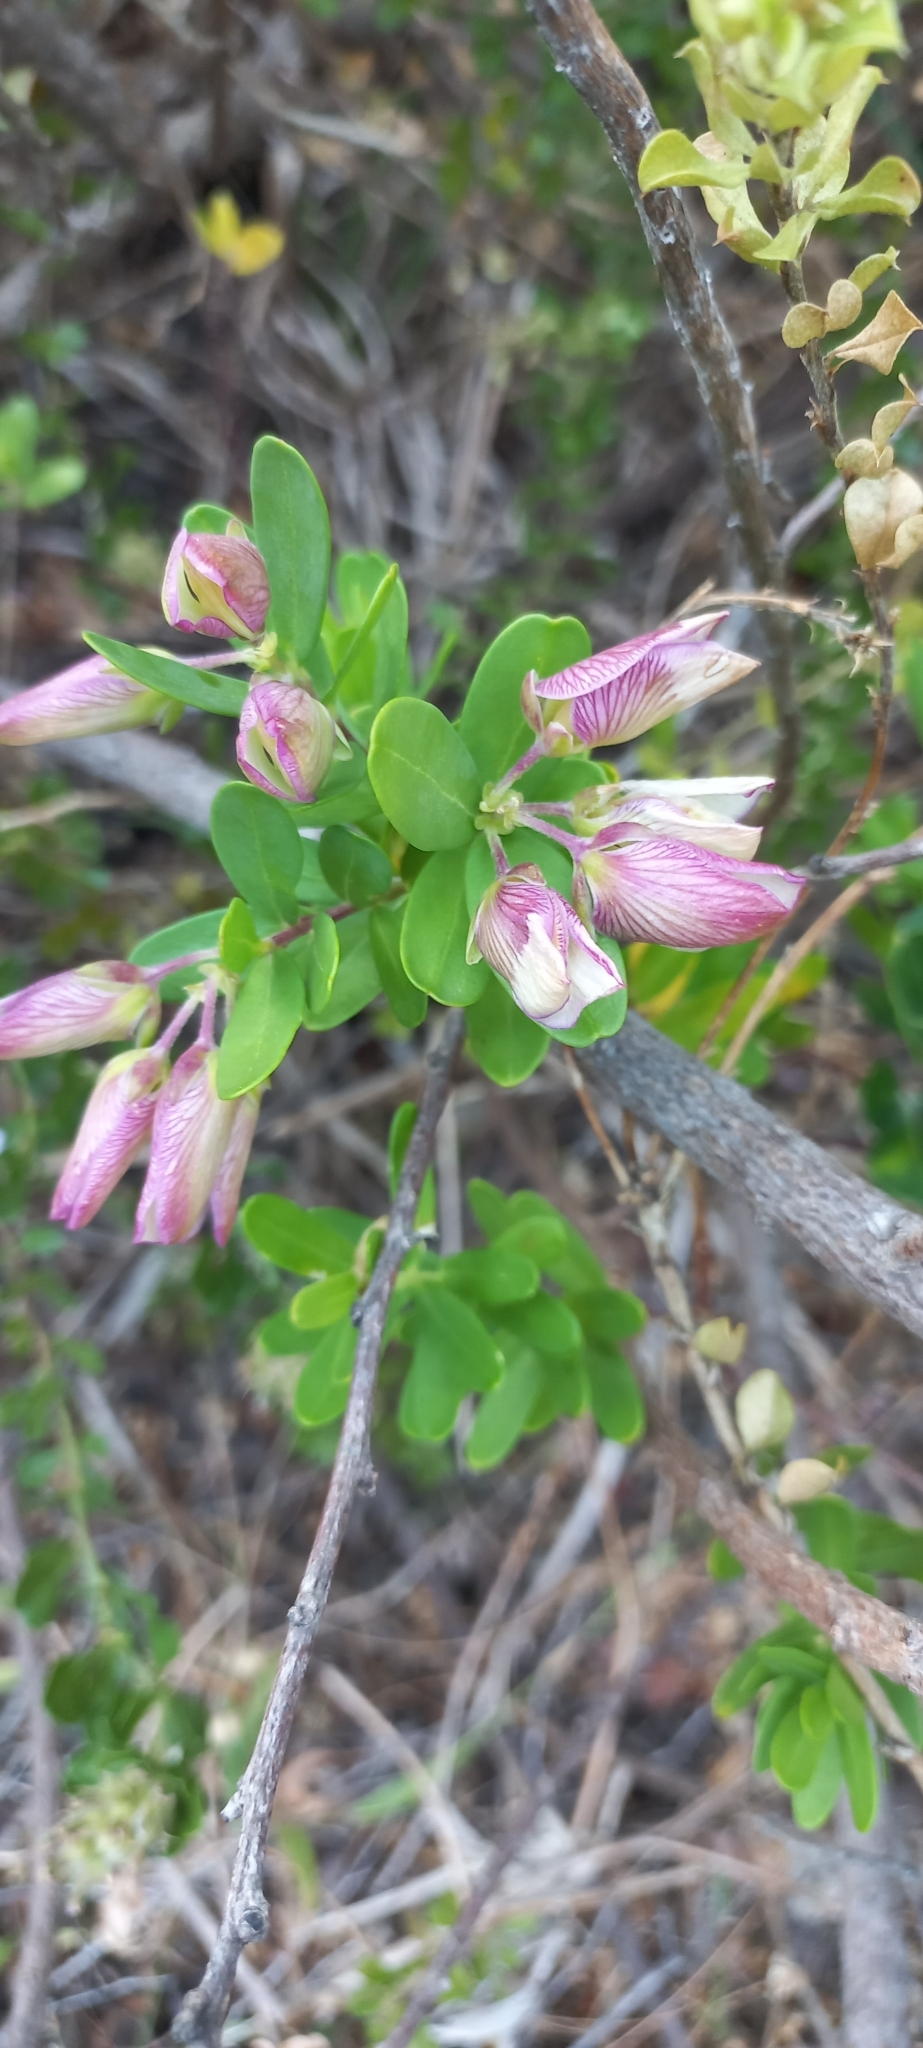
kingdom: Plantae
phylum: Tracheophyta
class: Magnoliopsida
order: Fabales
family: Polygalaceae
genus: Polygala
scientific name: Polygala myrtifolia
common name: Myrtle-leaf milkwort
